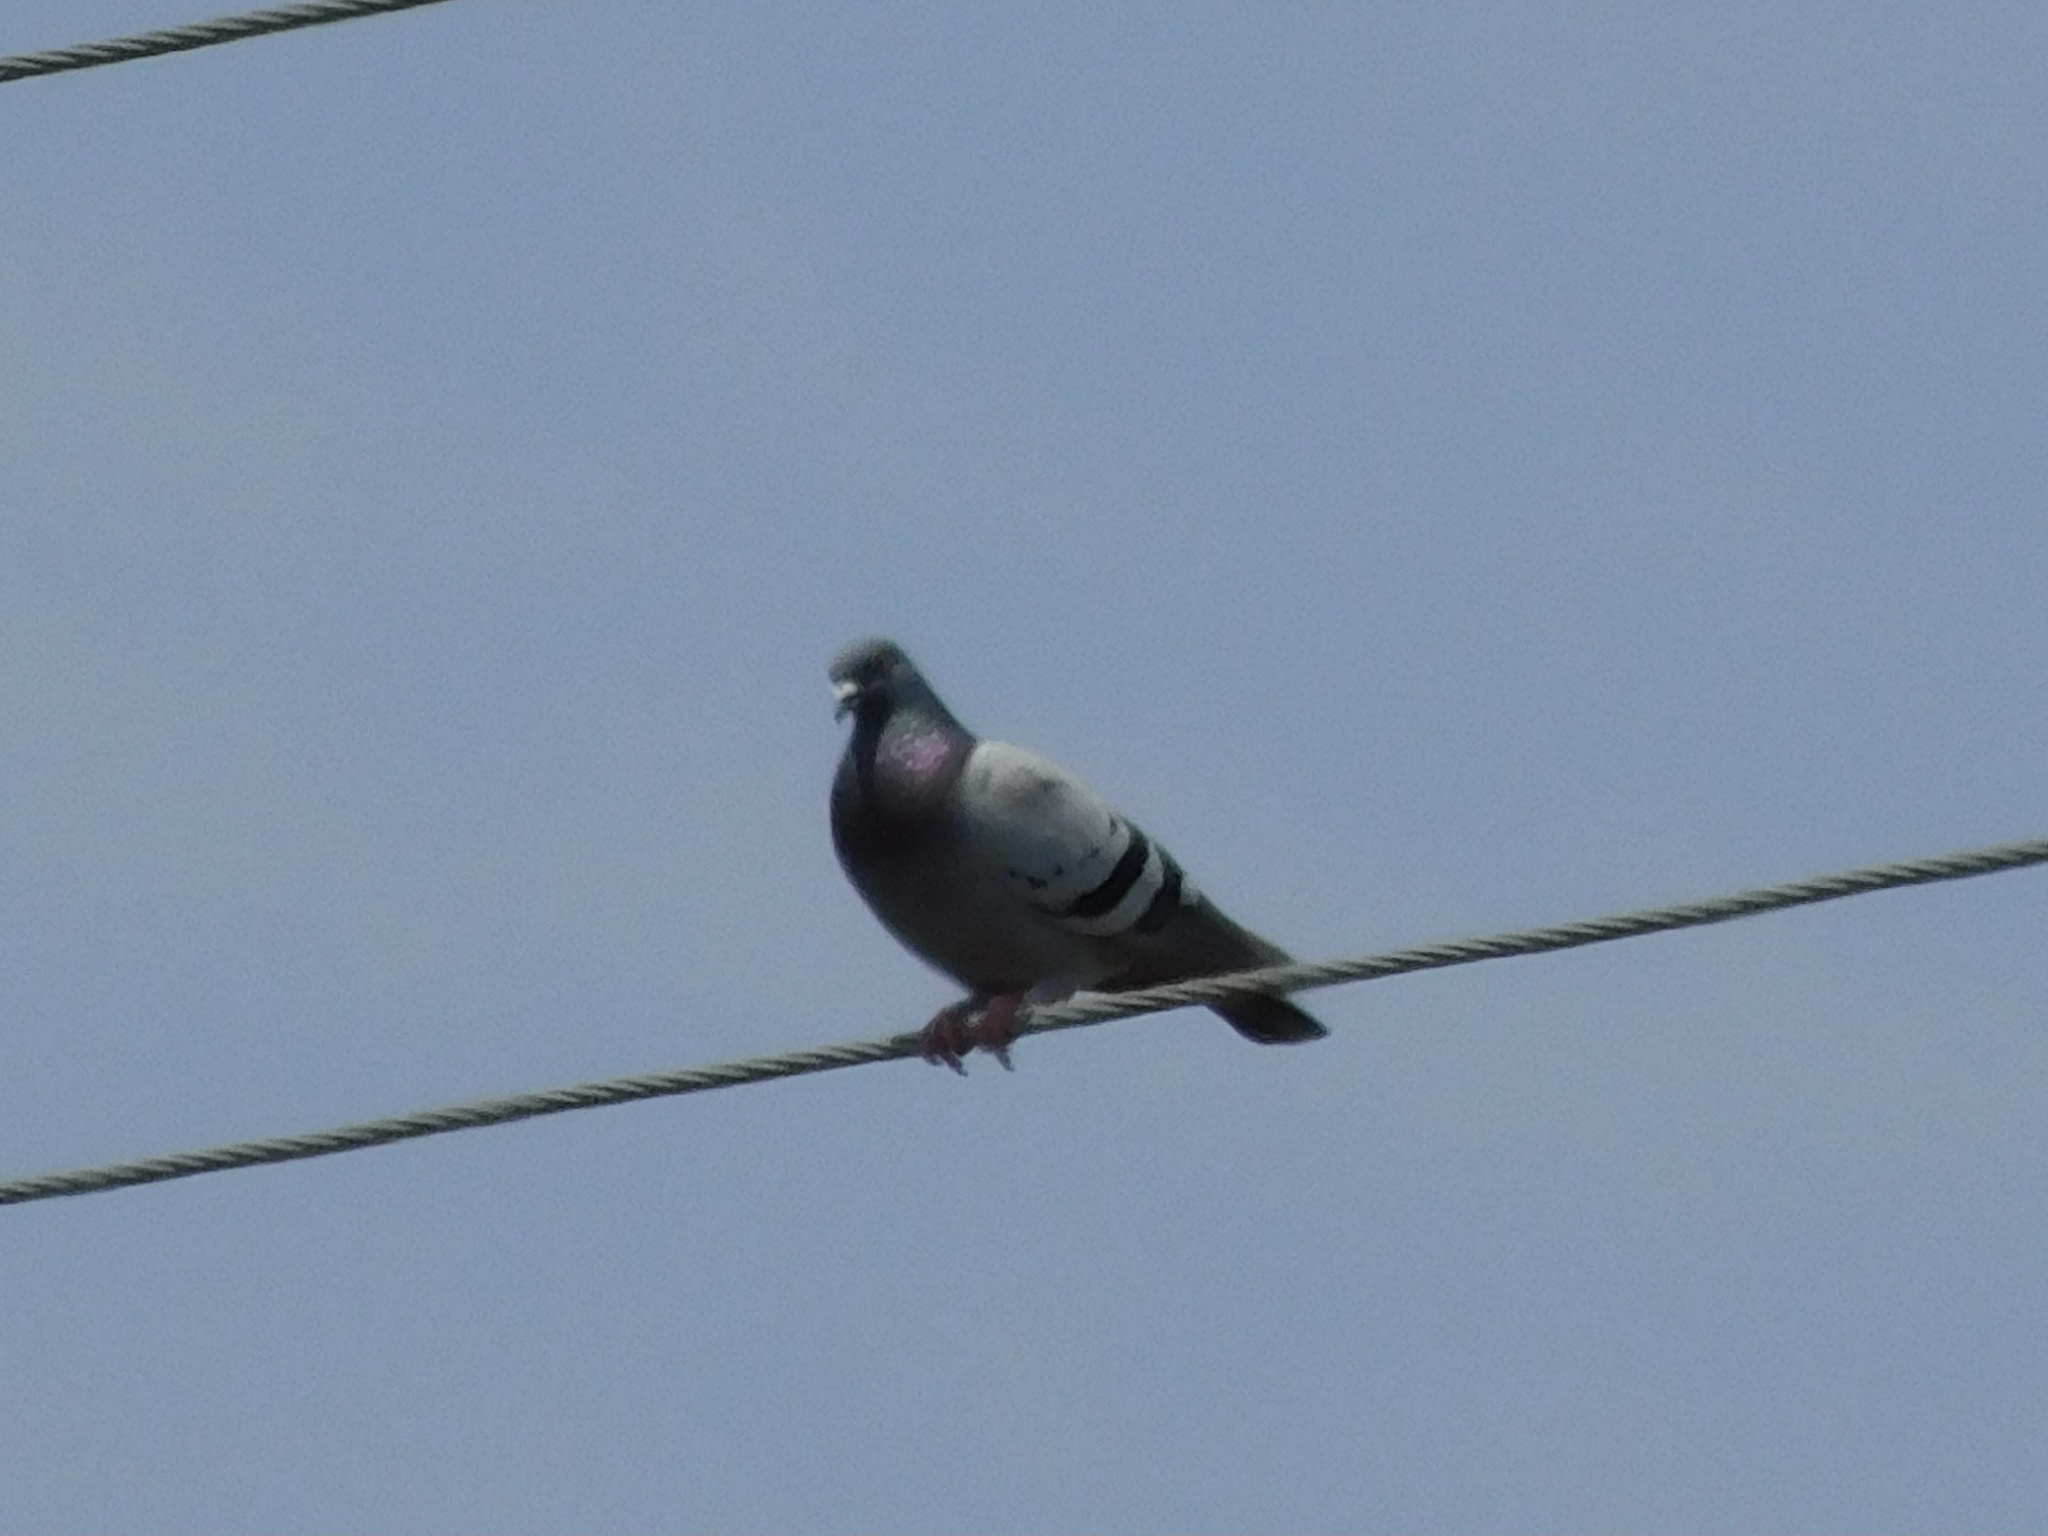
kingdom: Animalia
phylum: Chordata
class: Aves
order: Columbiformes
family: Columbidae
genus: Columba
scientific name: Columba livia
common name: Rock pigeon
